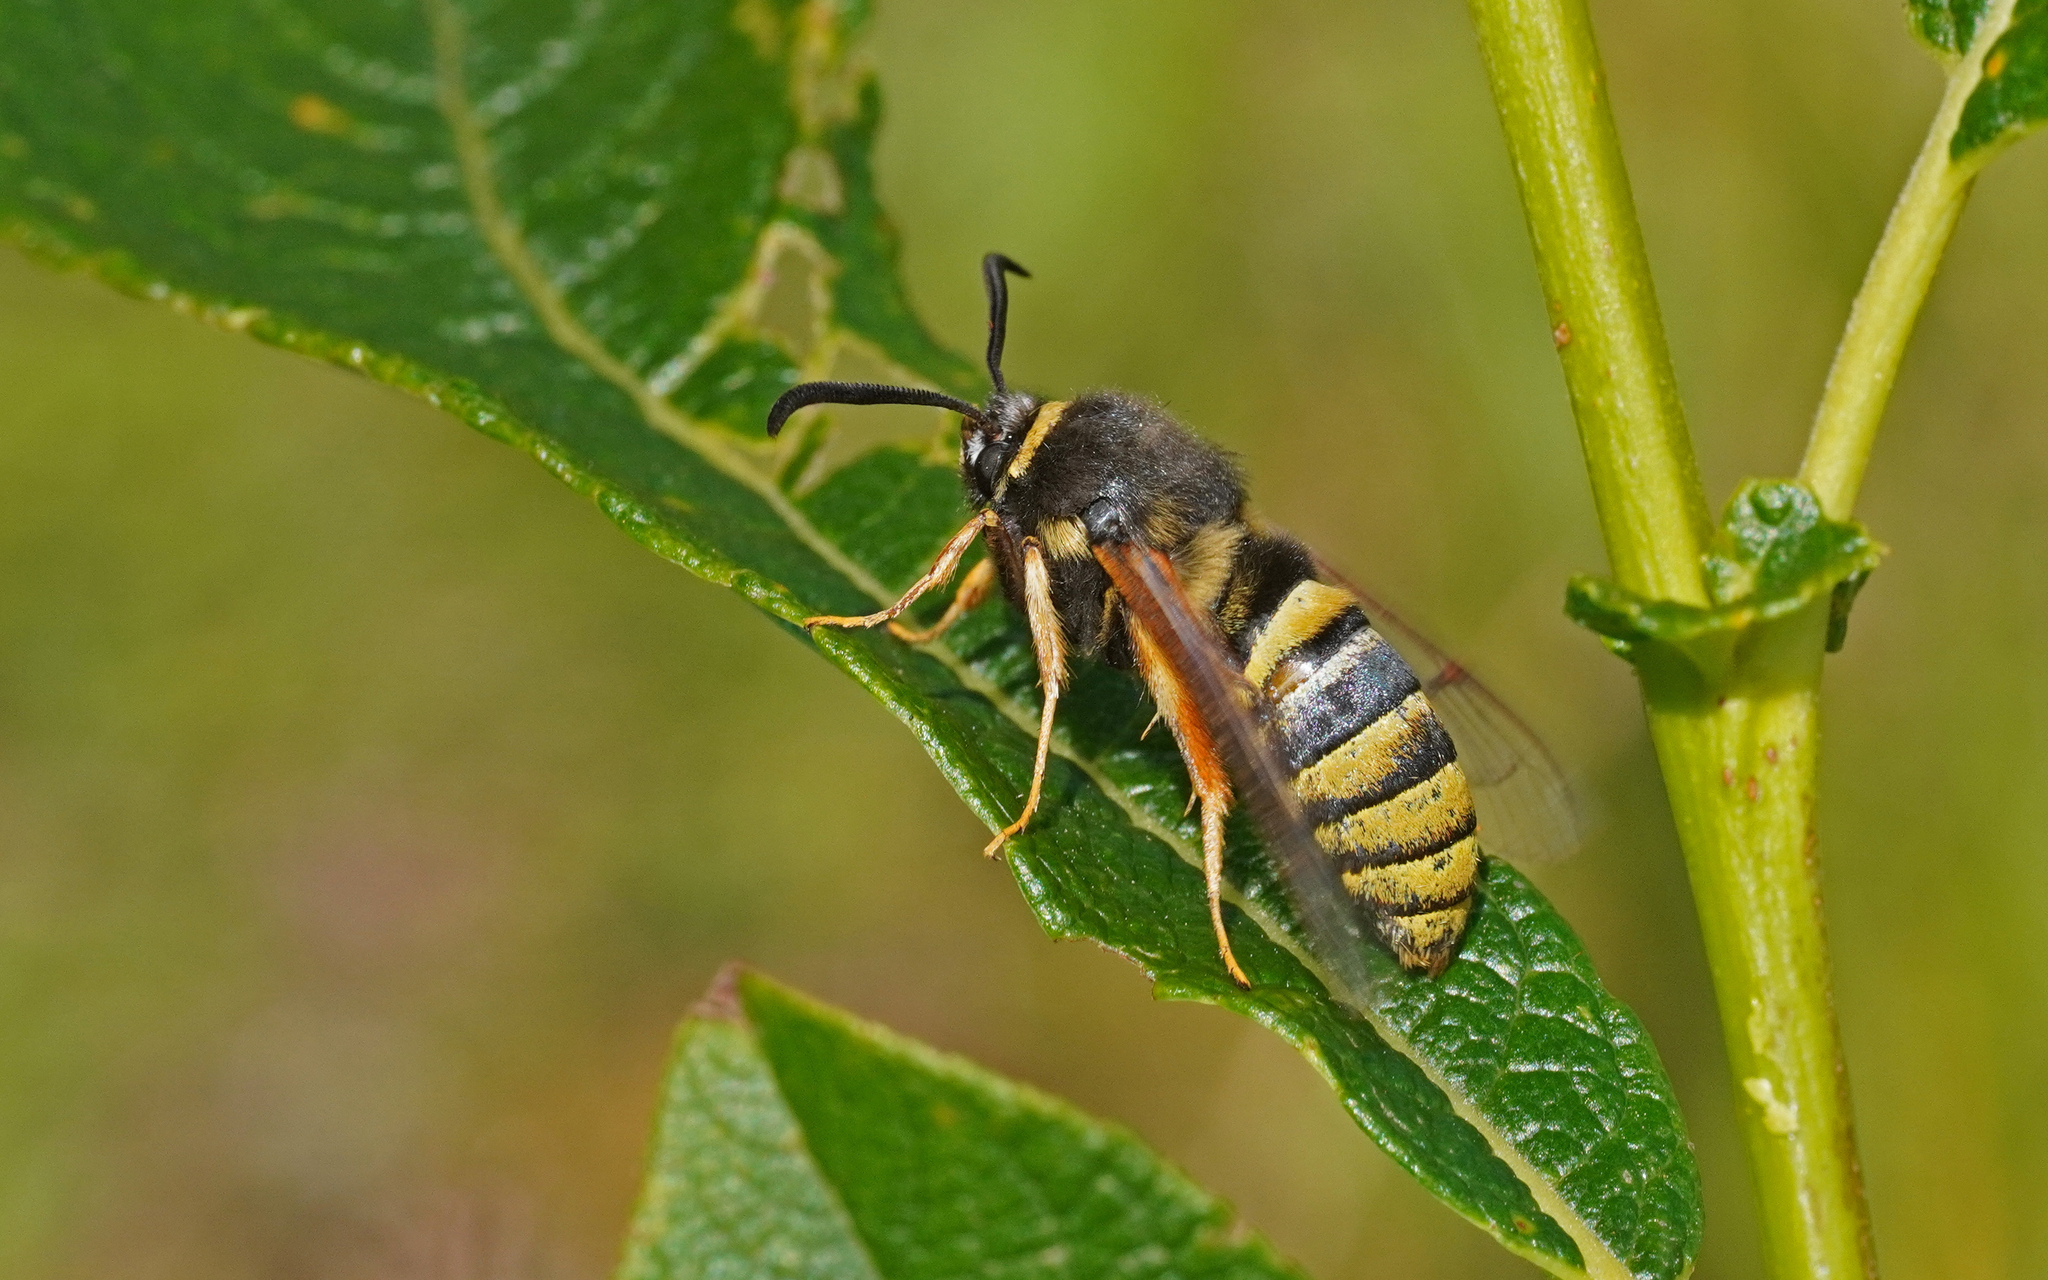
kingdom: Animalia
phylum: Arthropoda
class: Insecta
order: Lepidoptera
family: Sesiidae
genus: Sesia
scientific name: Sesia bembeciformis
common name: Lunar hornet moth
